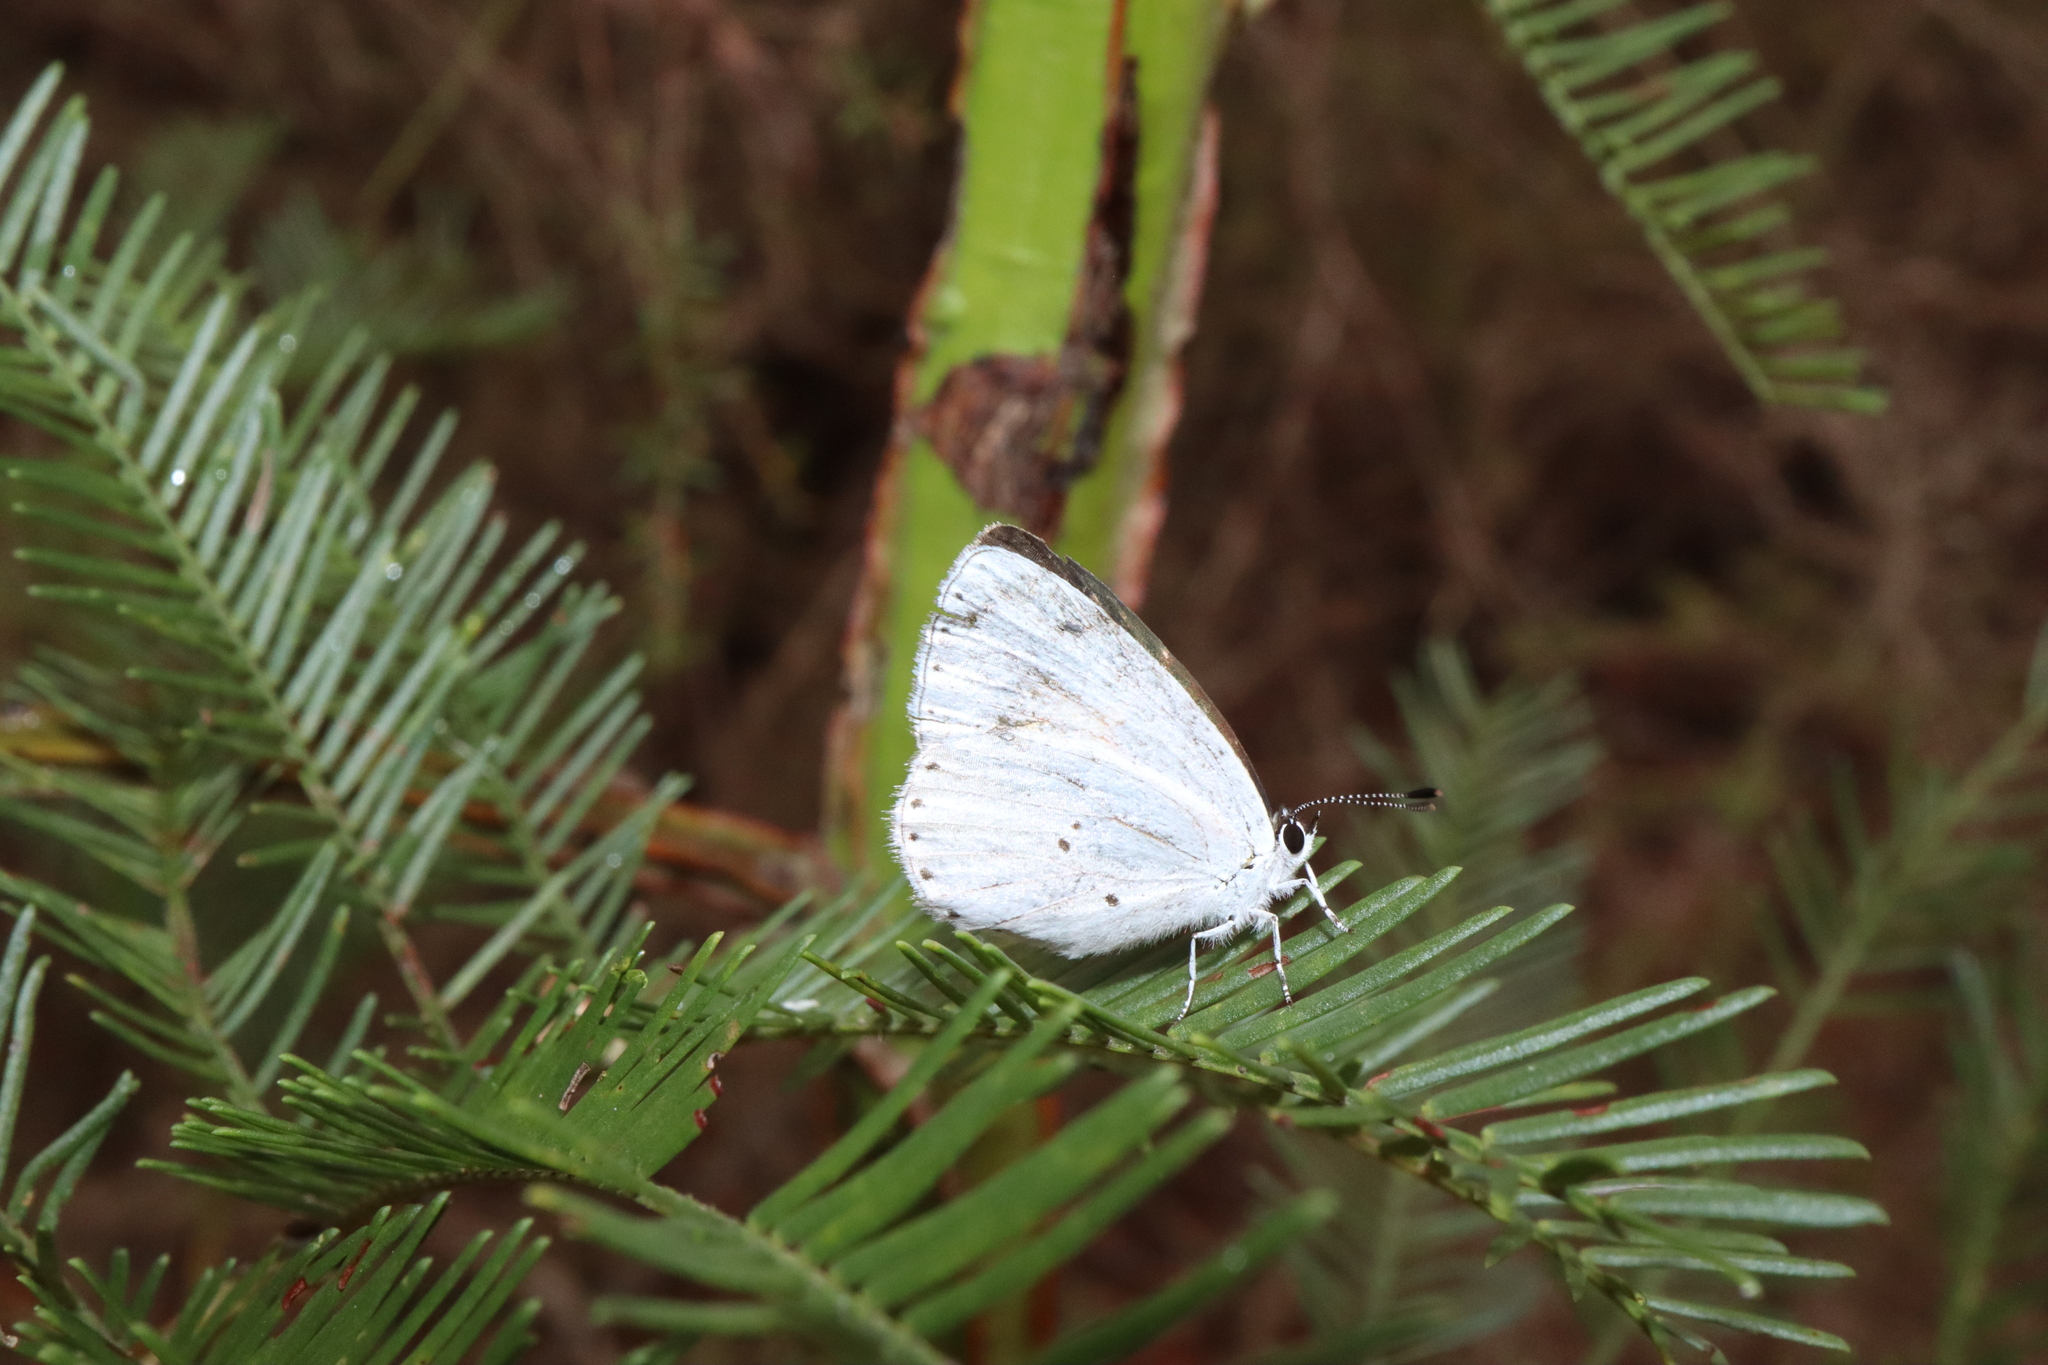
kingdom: Animalia
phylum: Arthropoda
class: Insecta
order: Lepidoptera
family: Lycaenidae
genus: Candalides
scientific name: Candalides xanthospilos
